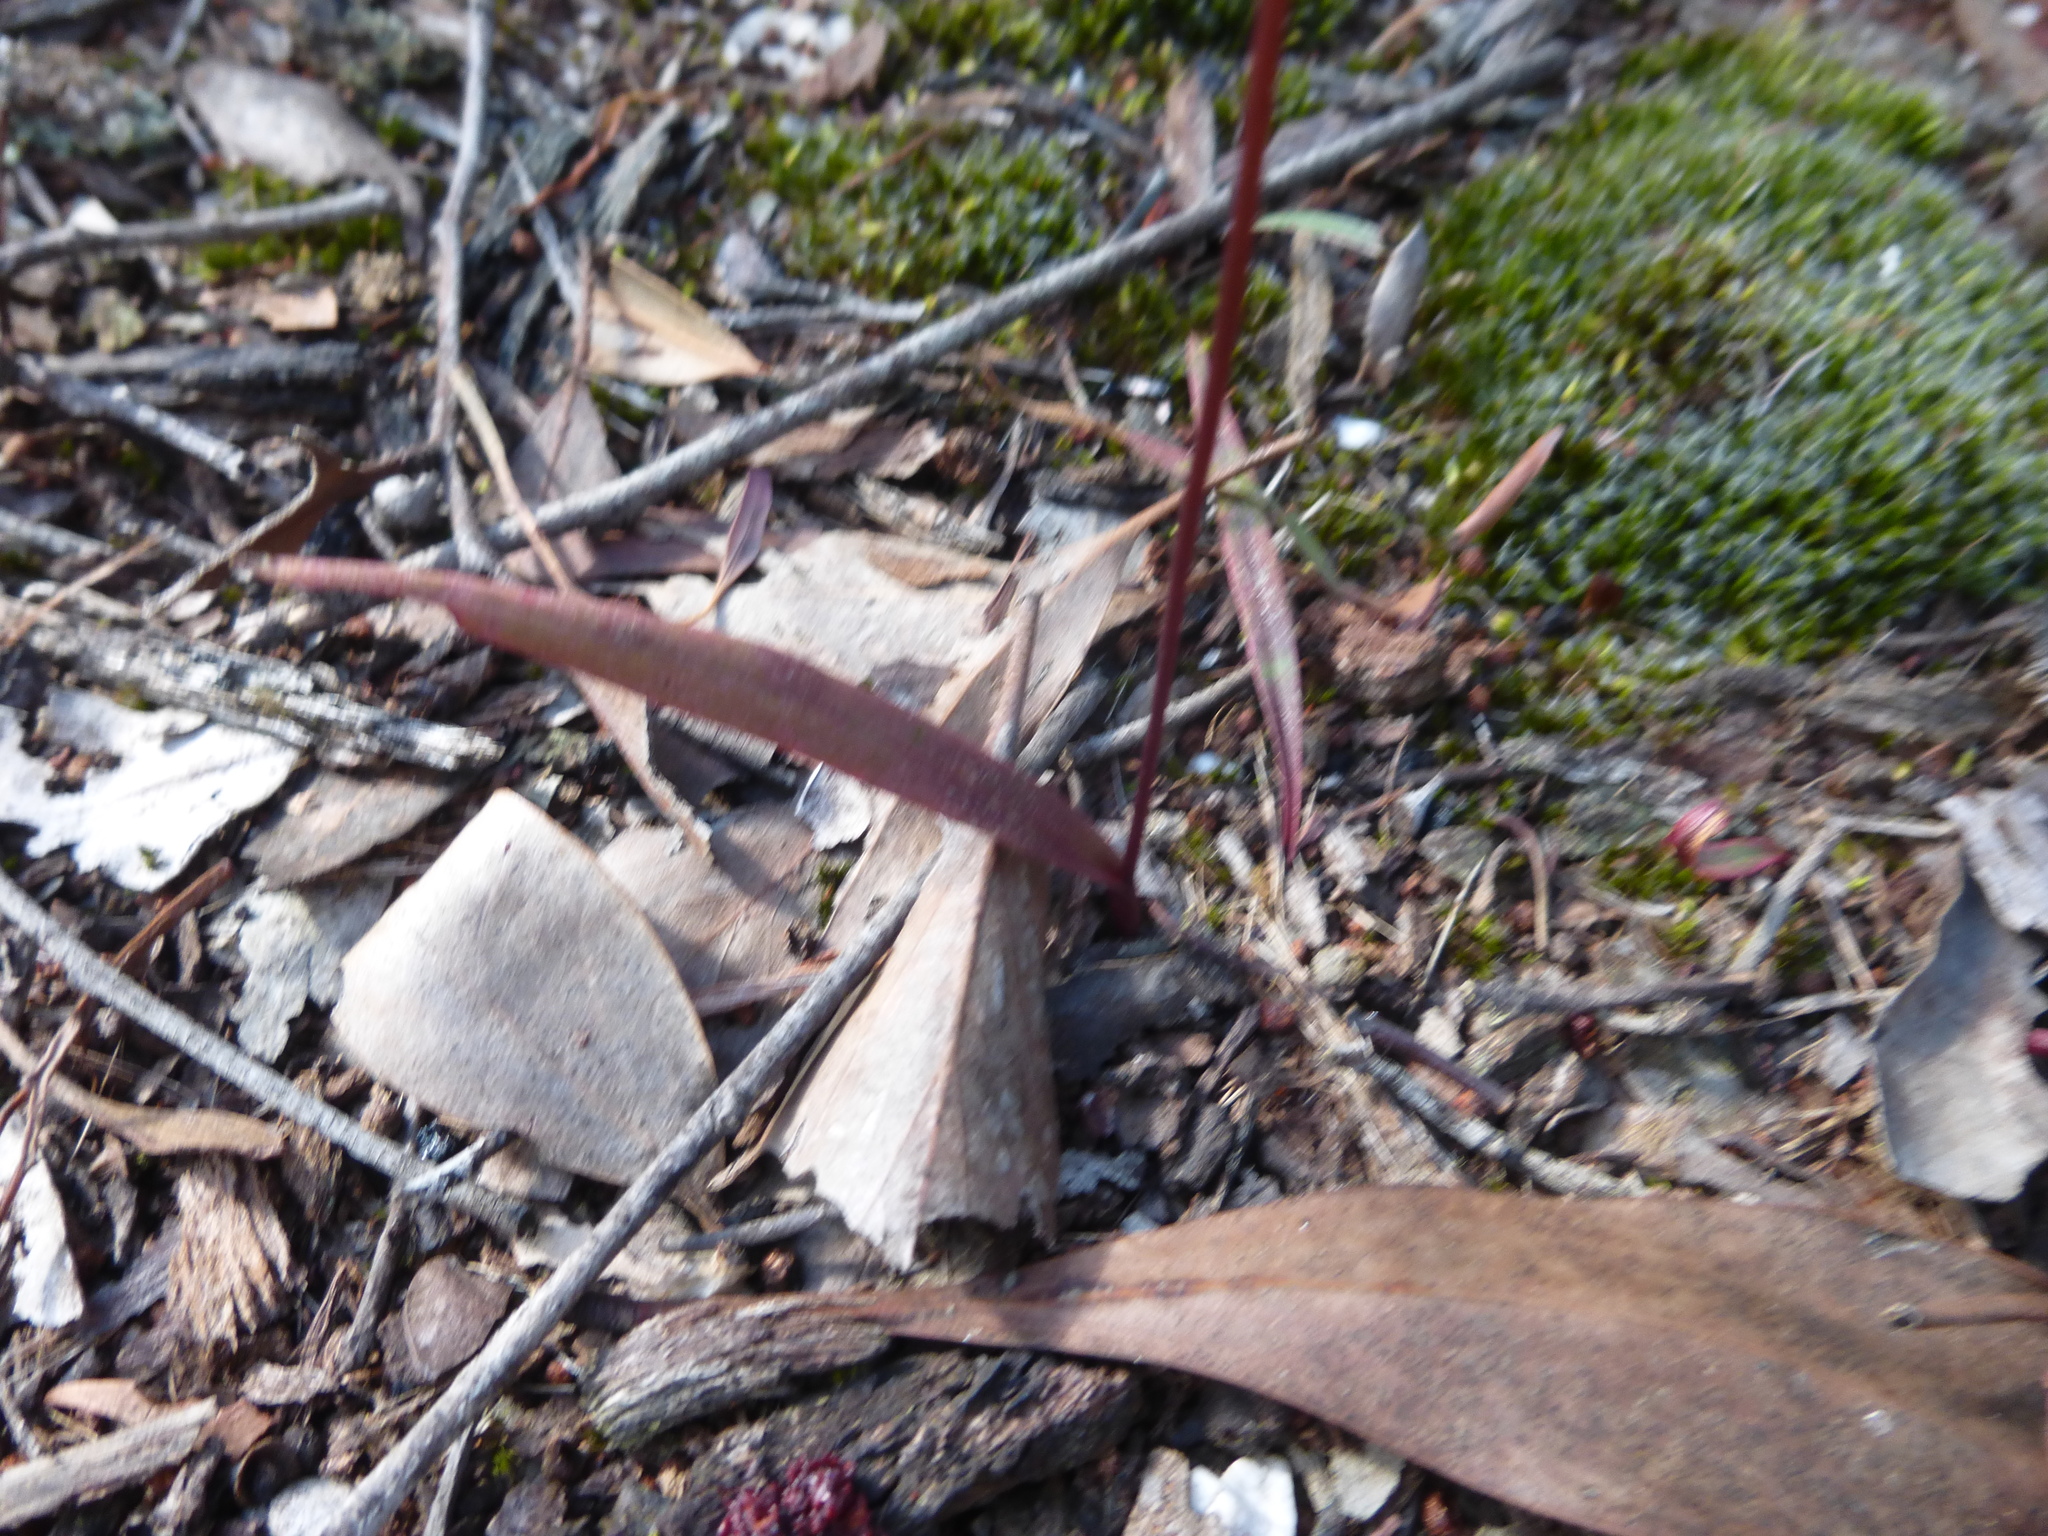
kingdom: Plantae
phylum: Tracheophyta
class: Liliopsida
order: Asparagales
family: Orchidaceae
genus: Caleana
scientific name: Caleana major
